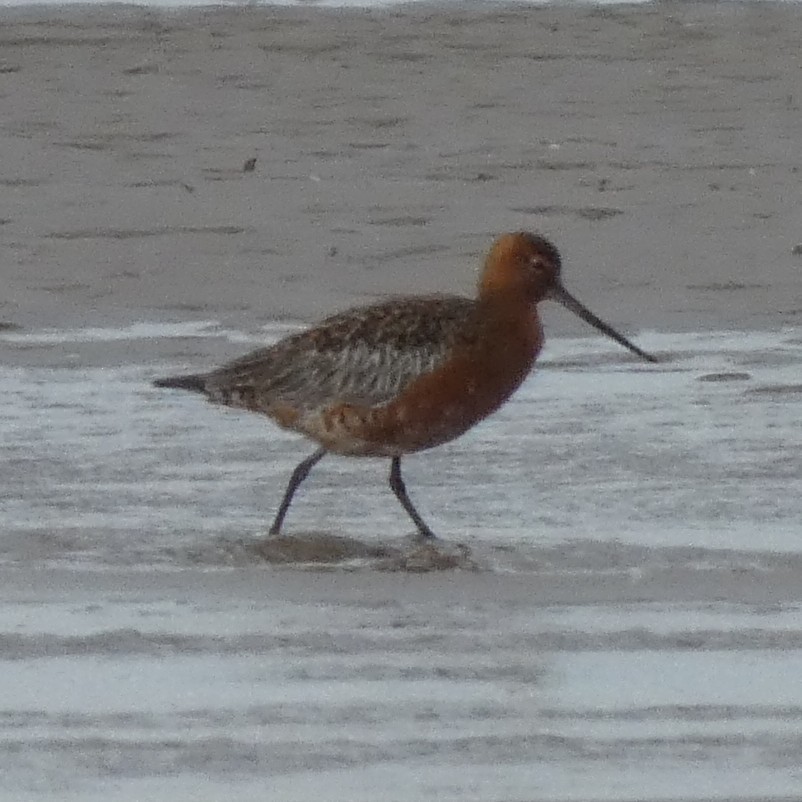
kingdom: Animalia
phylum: Chordata
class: Aves
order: Charadriiformes
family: Scolopacidae
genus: Limosa
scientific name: Limosa lapponica
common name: Bar-tailed godwit
